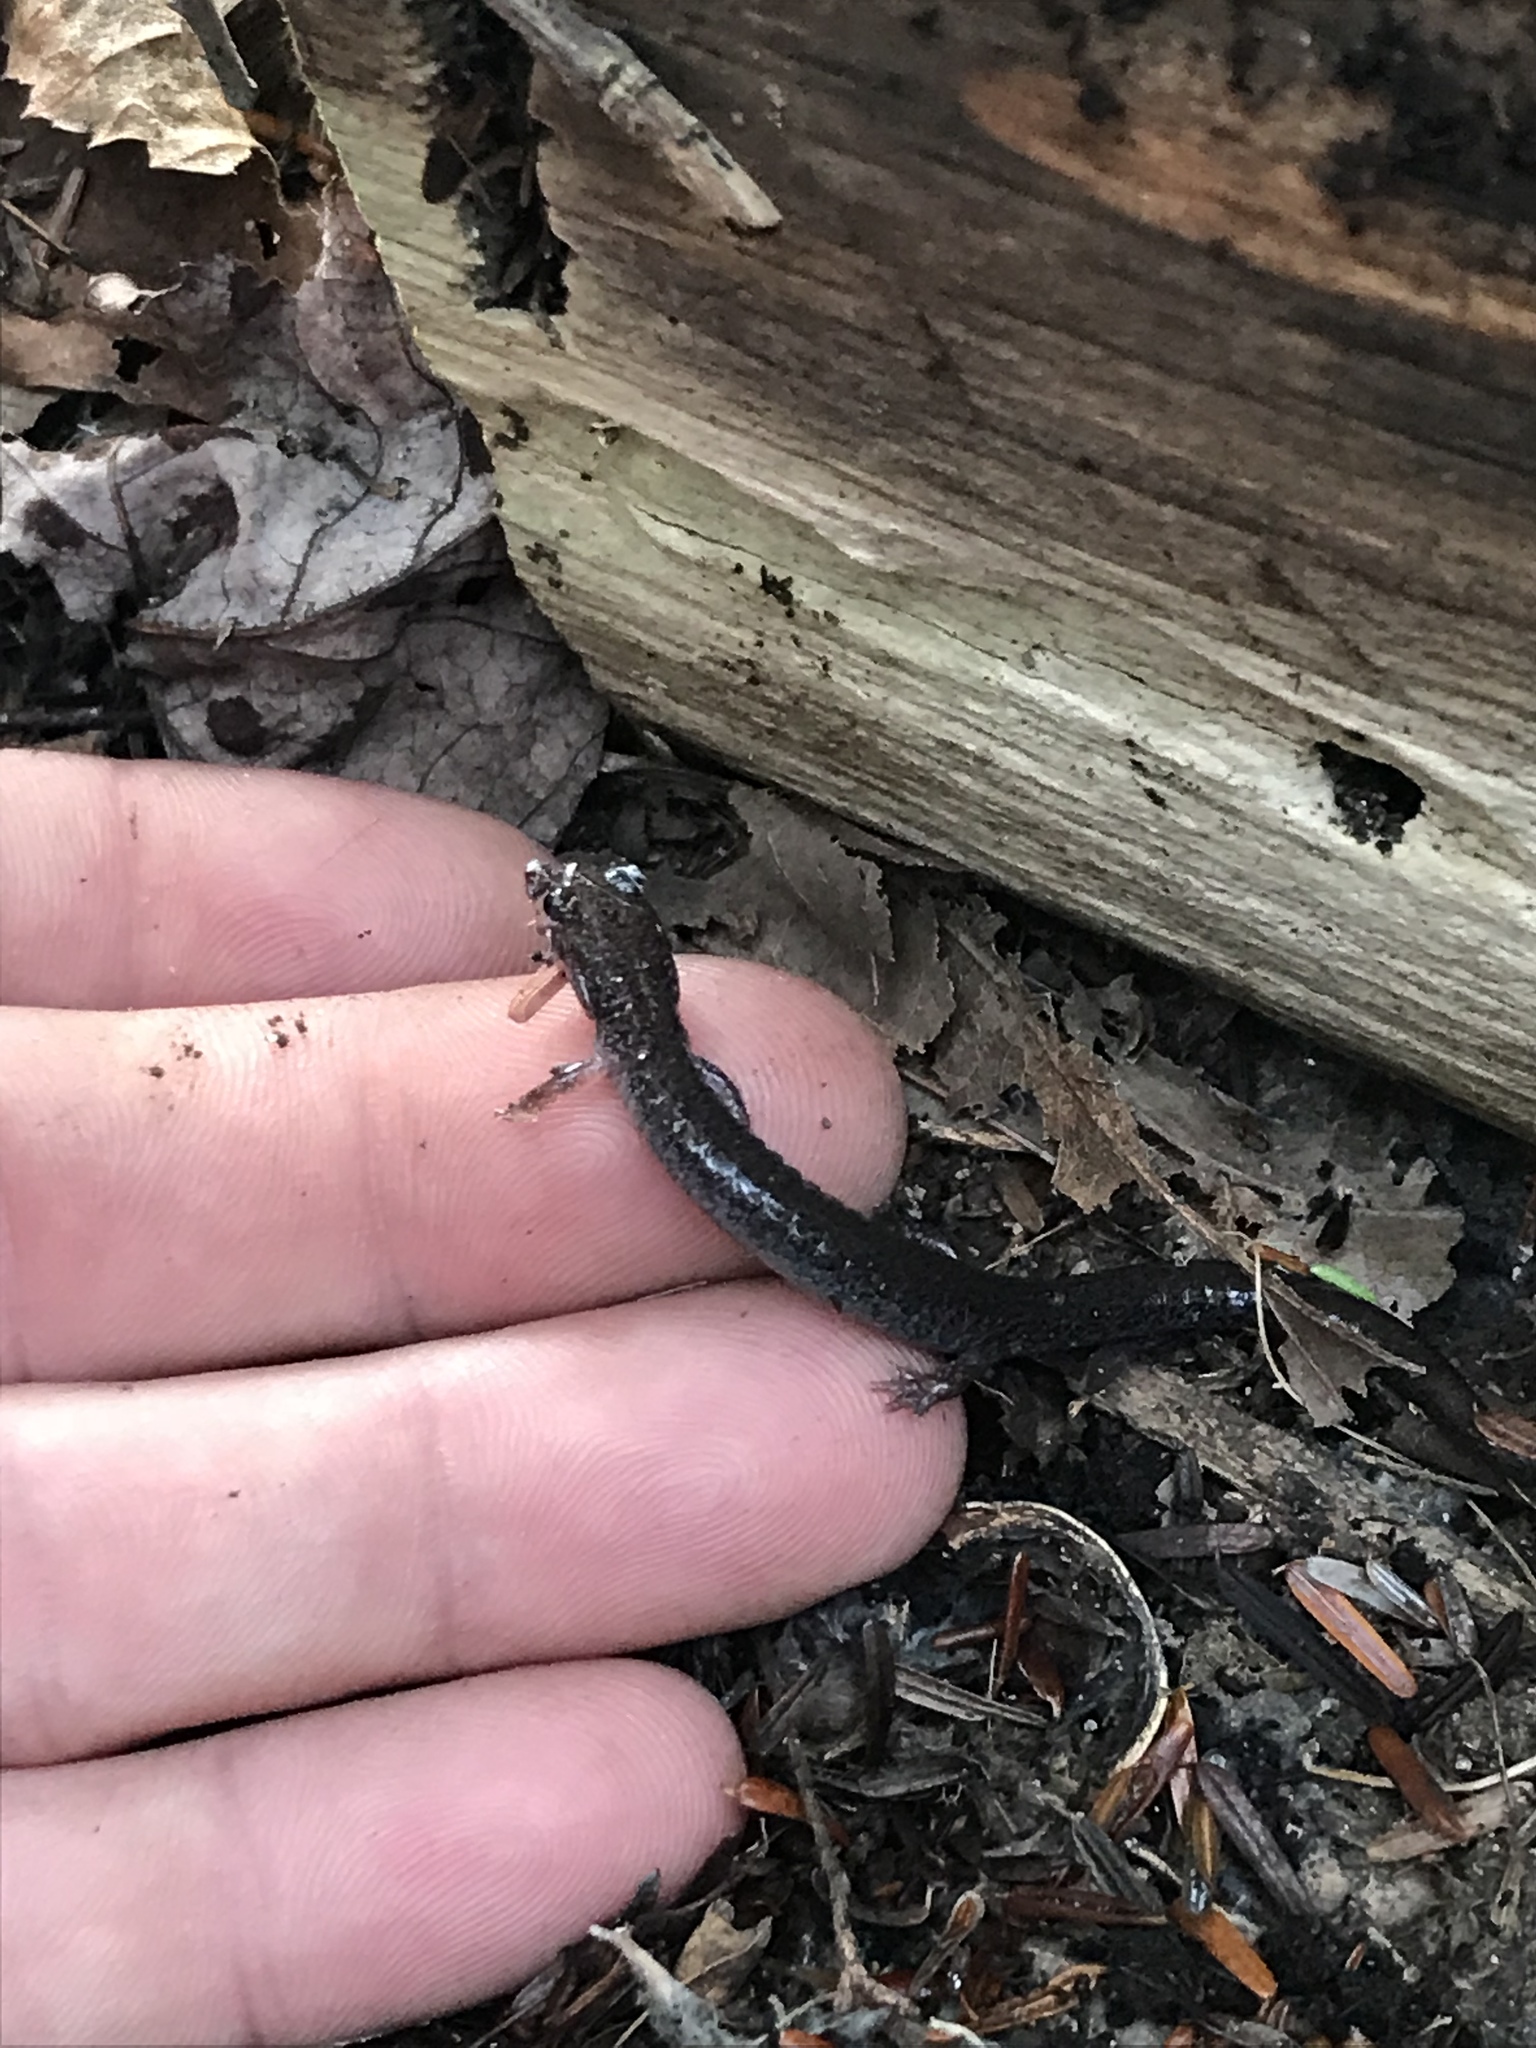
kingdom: Animalia
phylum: Chordata
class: Amphibia
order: Caudata
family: Plethodontidae
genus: Plethodon
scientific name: Plethodon cinereus
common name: Redback salamander
